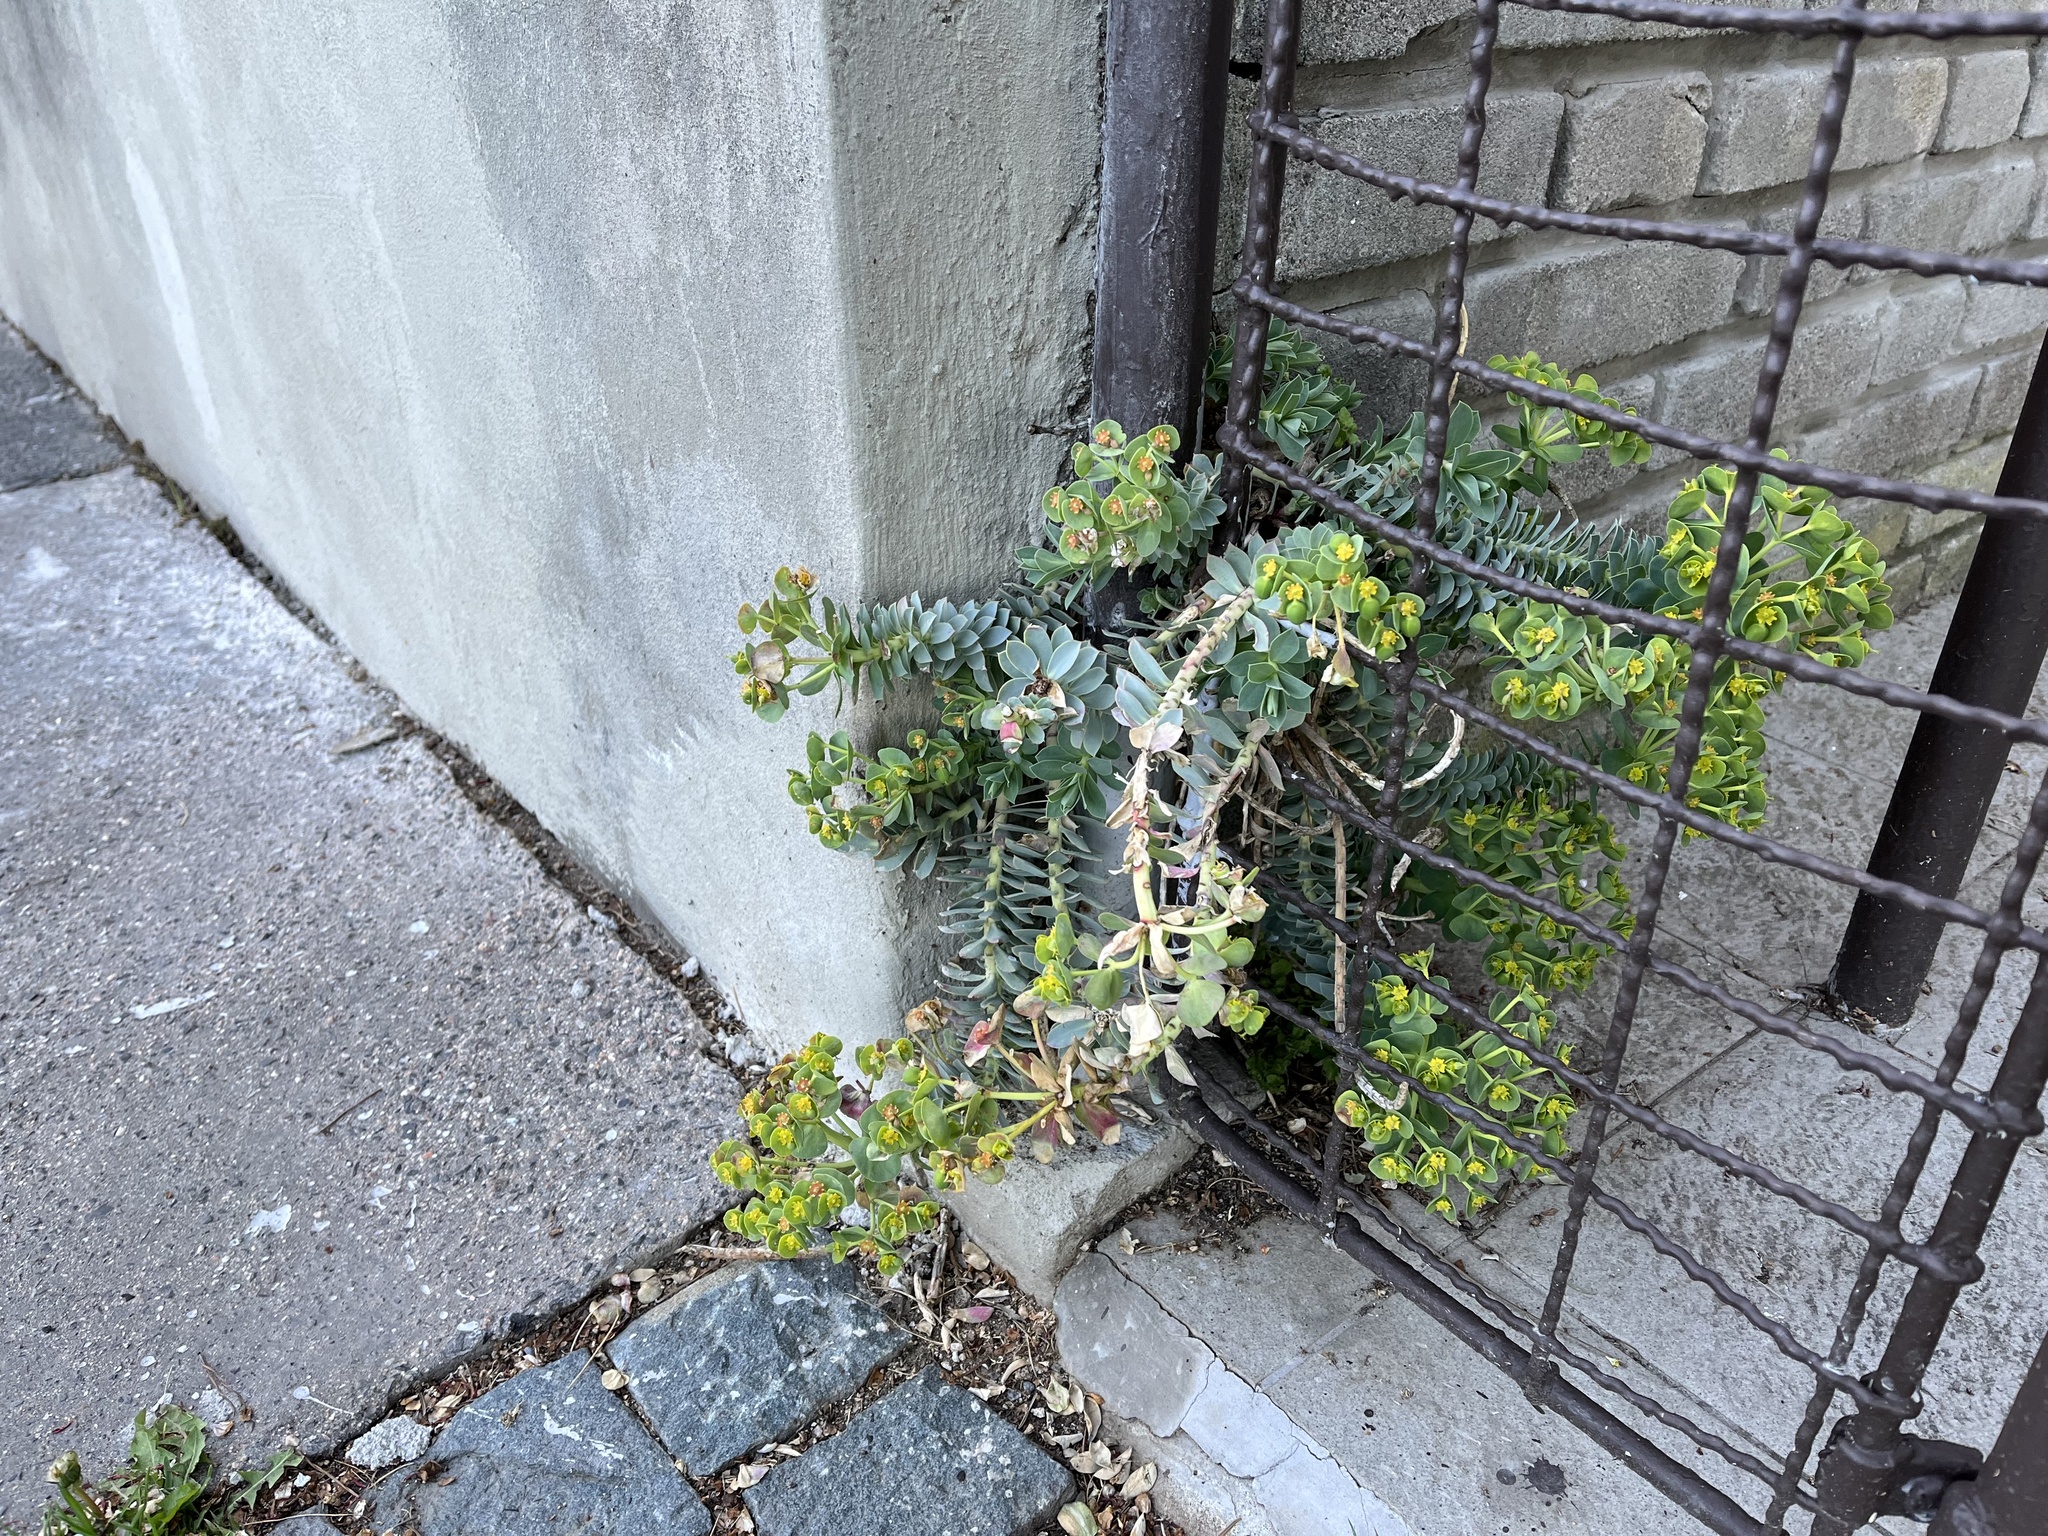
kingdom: Plantae
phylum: Tracheophyta
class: Magnoliopsida
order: Malpighiales
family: Euphorbiaceae
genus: Euphorbia
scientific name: Euphorbia myrsinites
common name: Myrtle spurge
